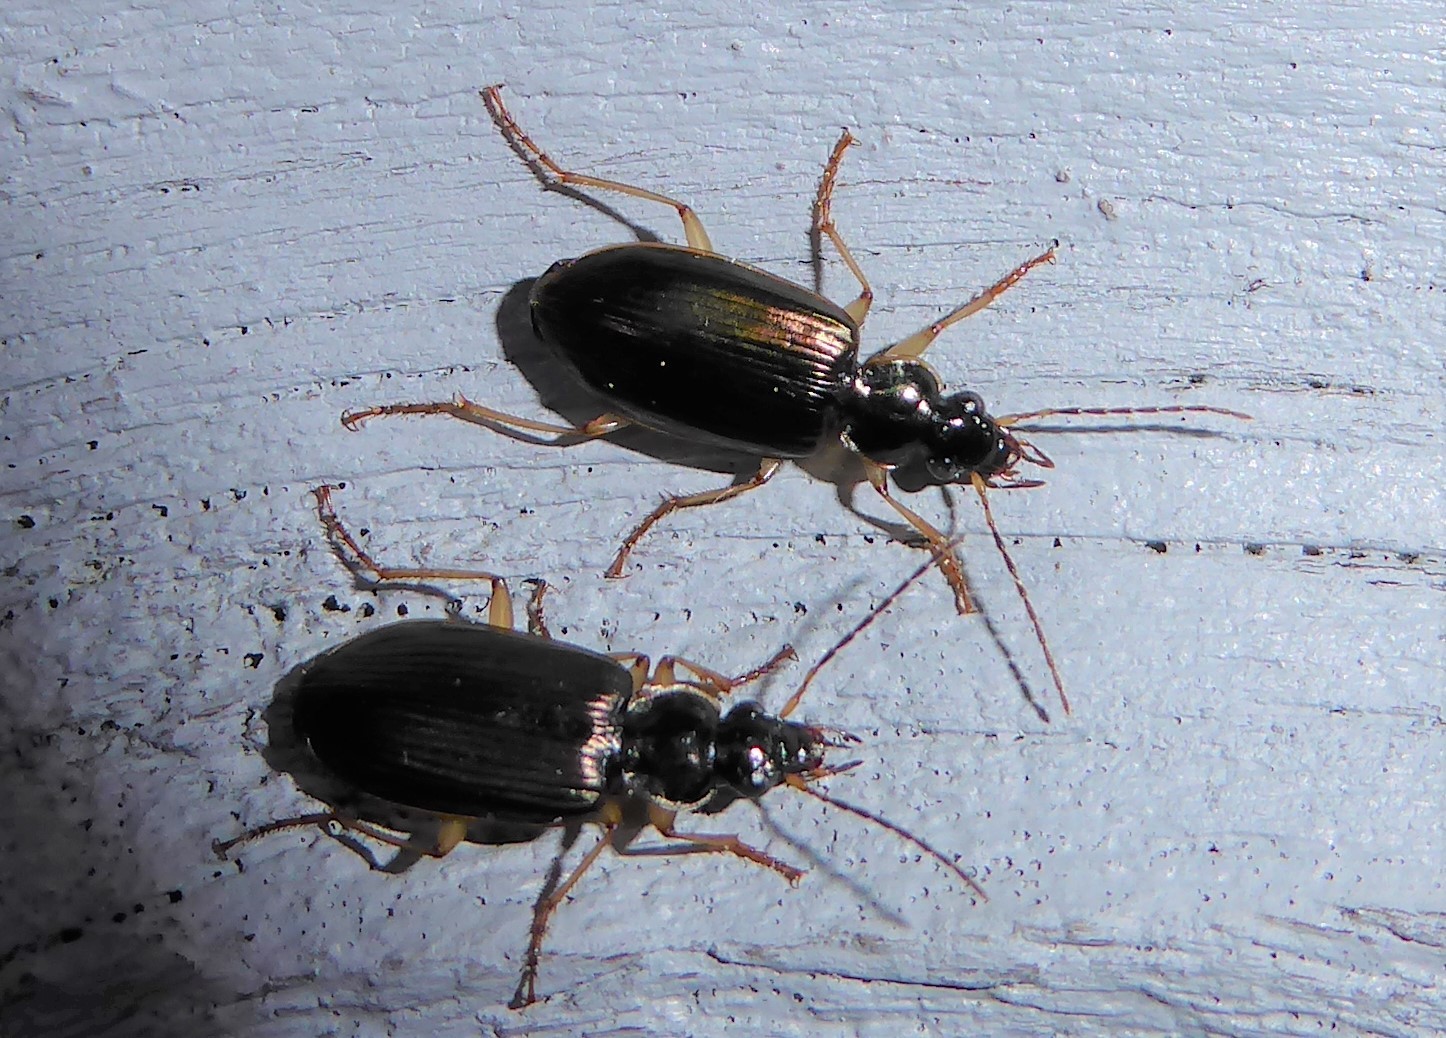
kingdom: Animalia
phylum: Arthropoda
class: Insecta
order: Coleoptera
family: Carabidae
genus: Notagonum
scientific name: Notagonum submetallicum
